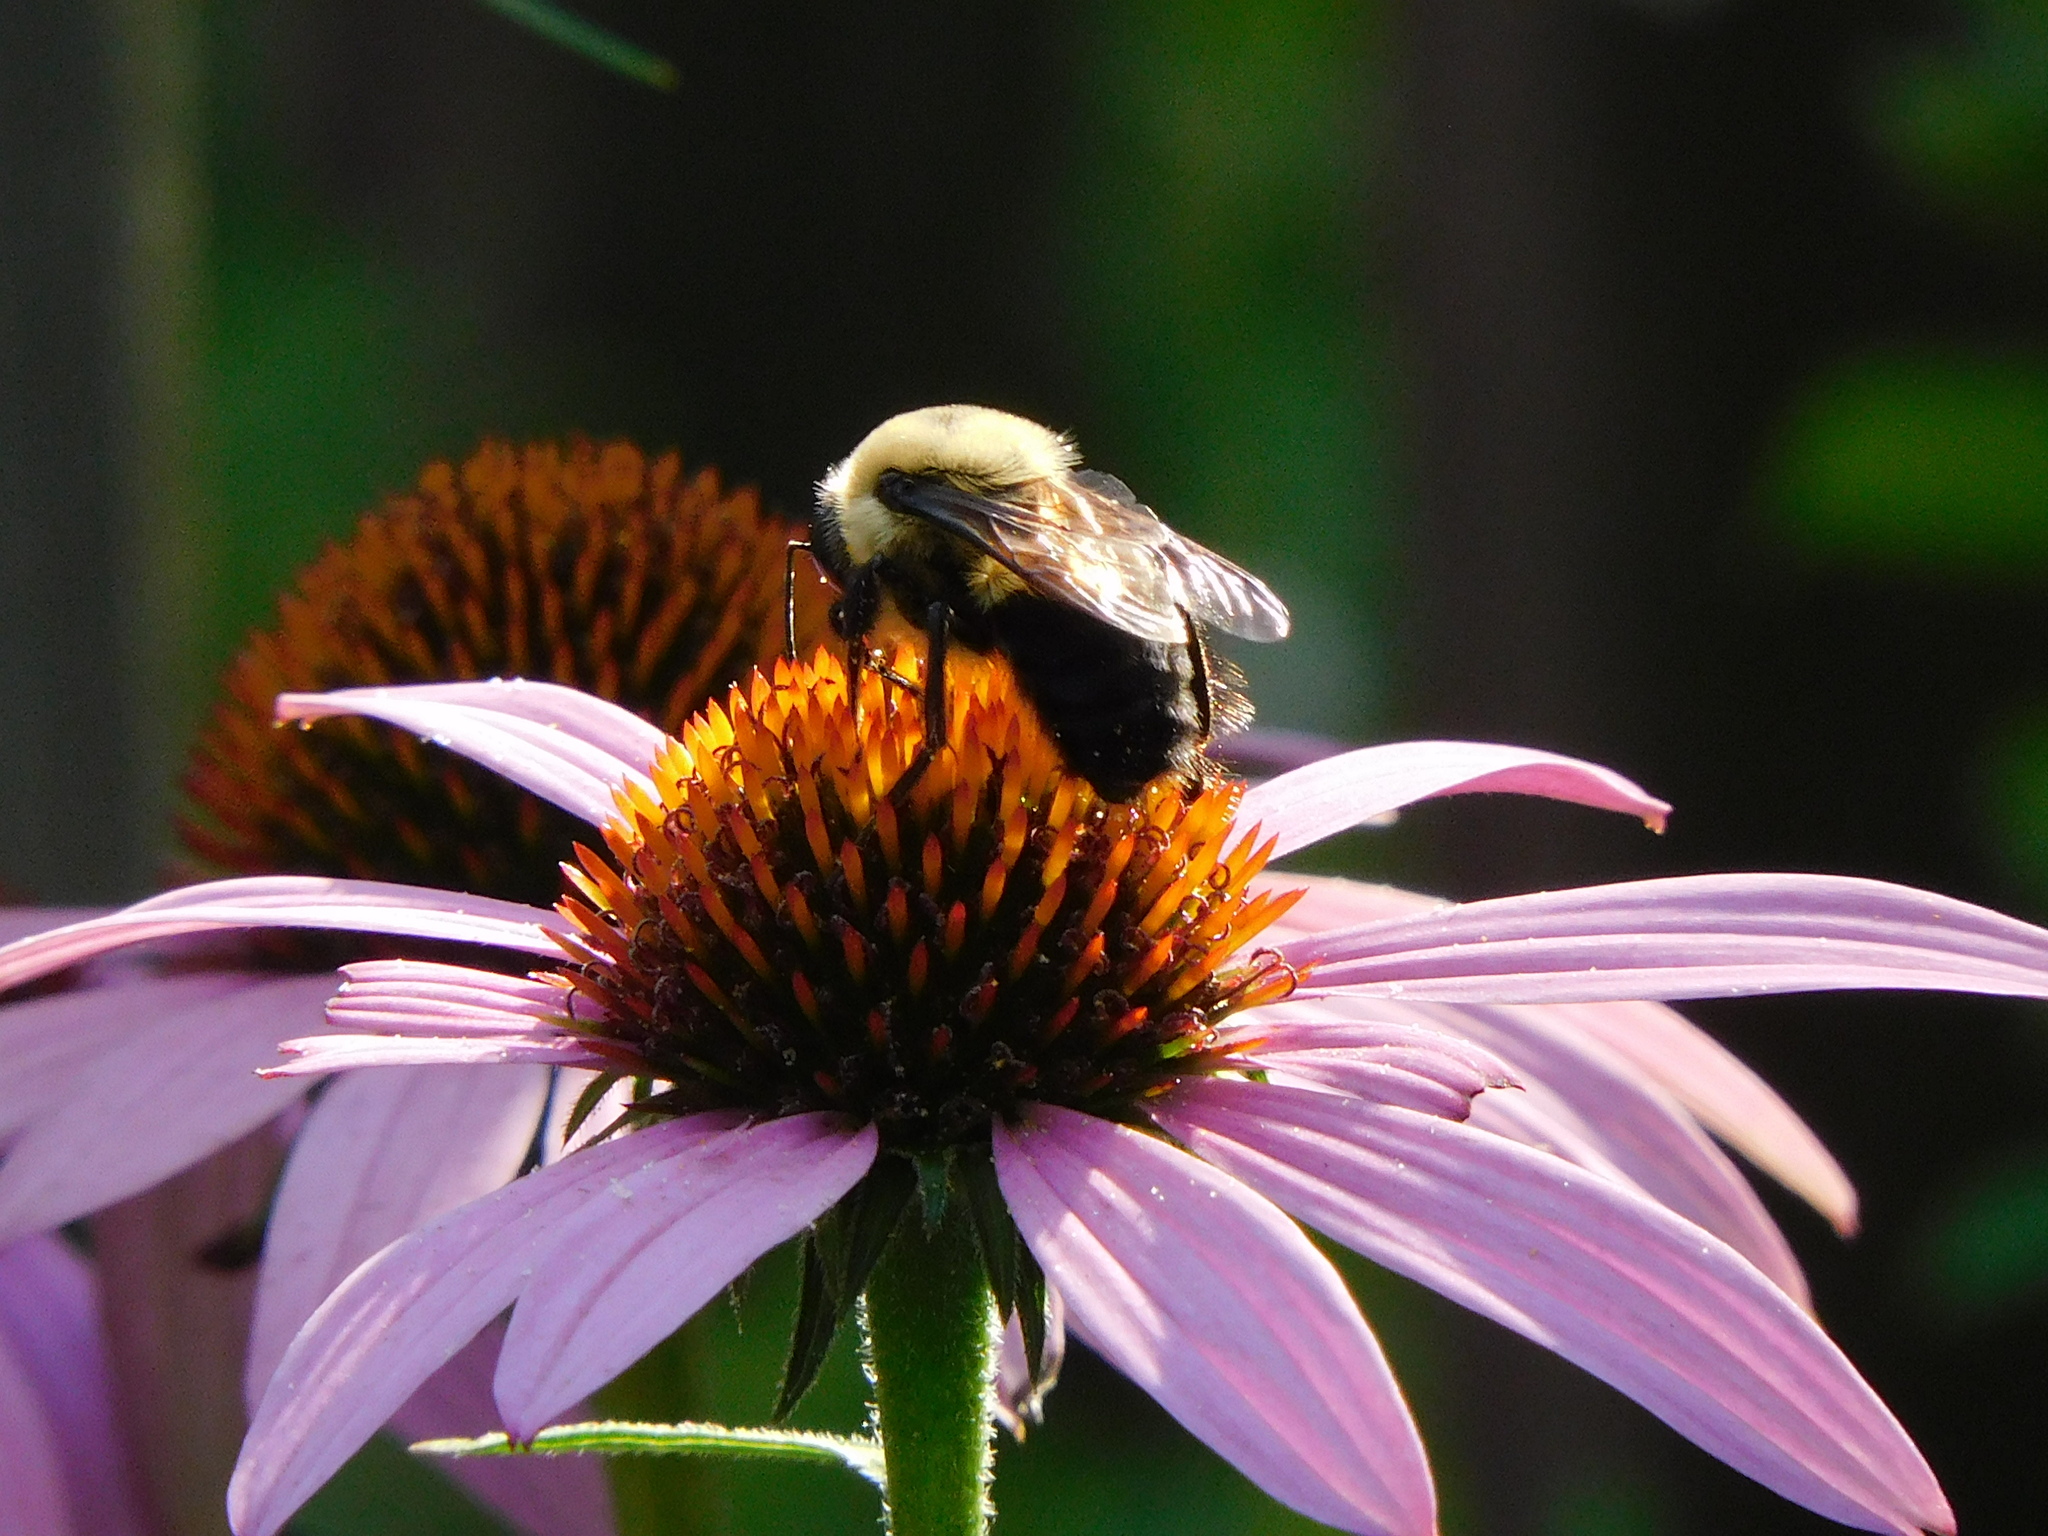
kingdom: Animalia
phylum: Arthropoda
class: Insecta
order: Hymenoptera
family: Apidae
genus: Bombus
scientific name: Bombus griseocollis
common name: Brown-belted bumble bee
